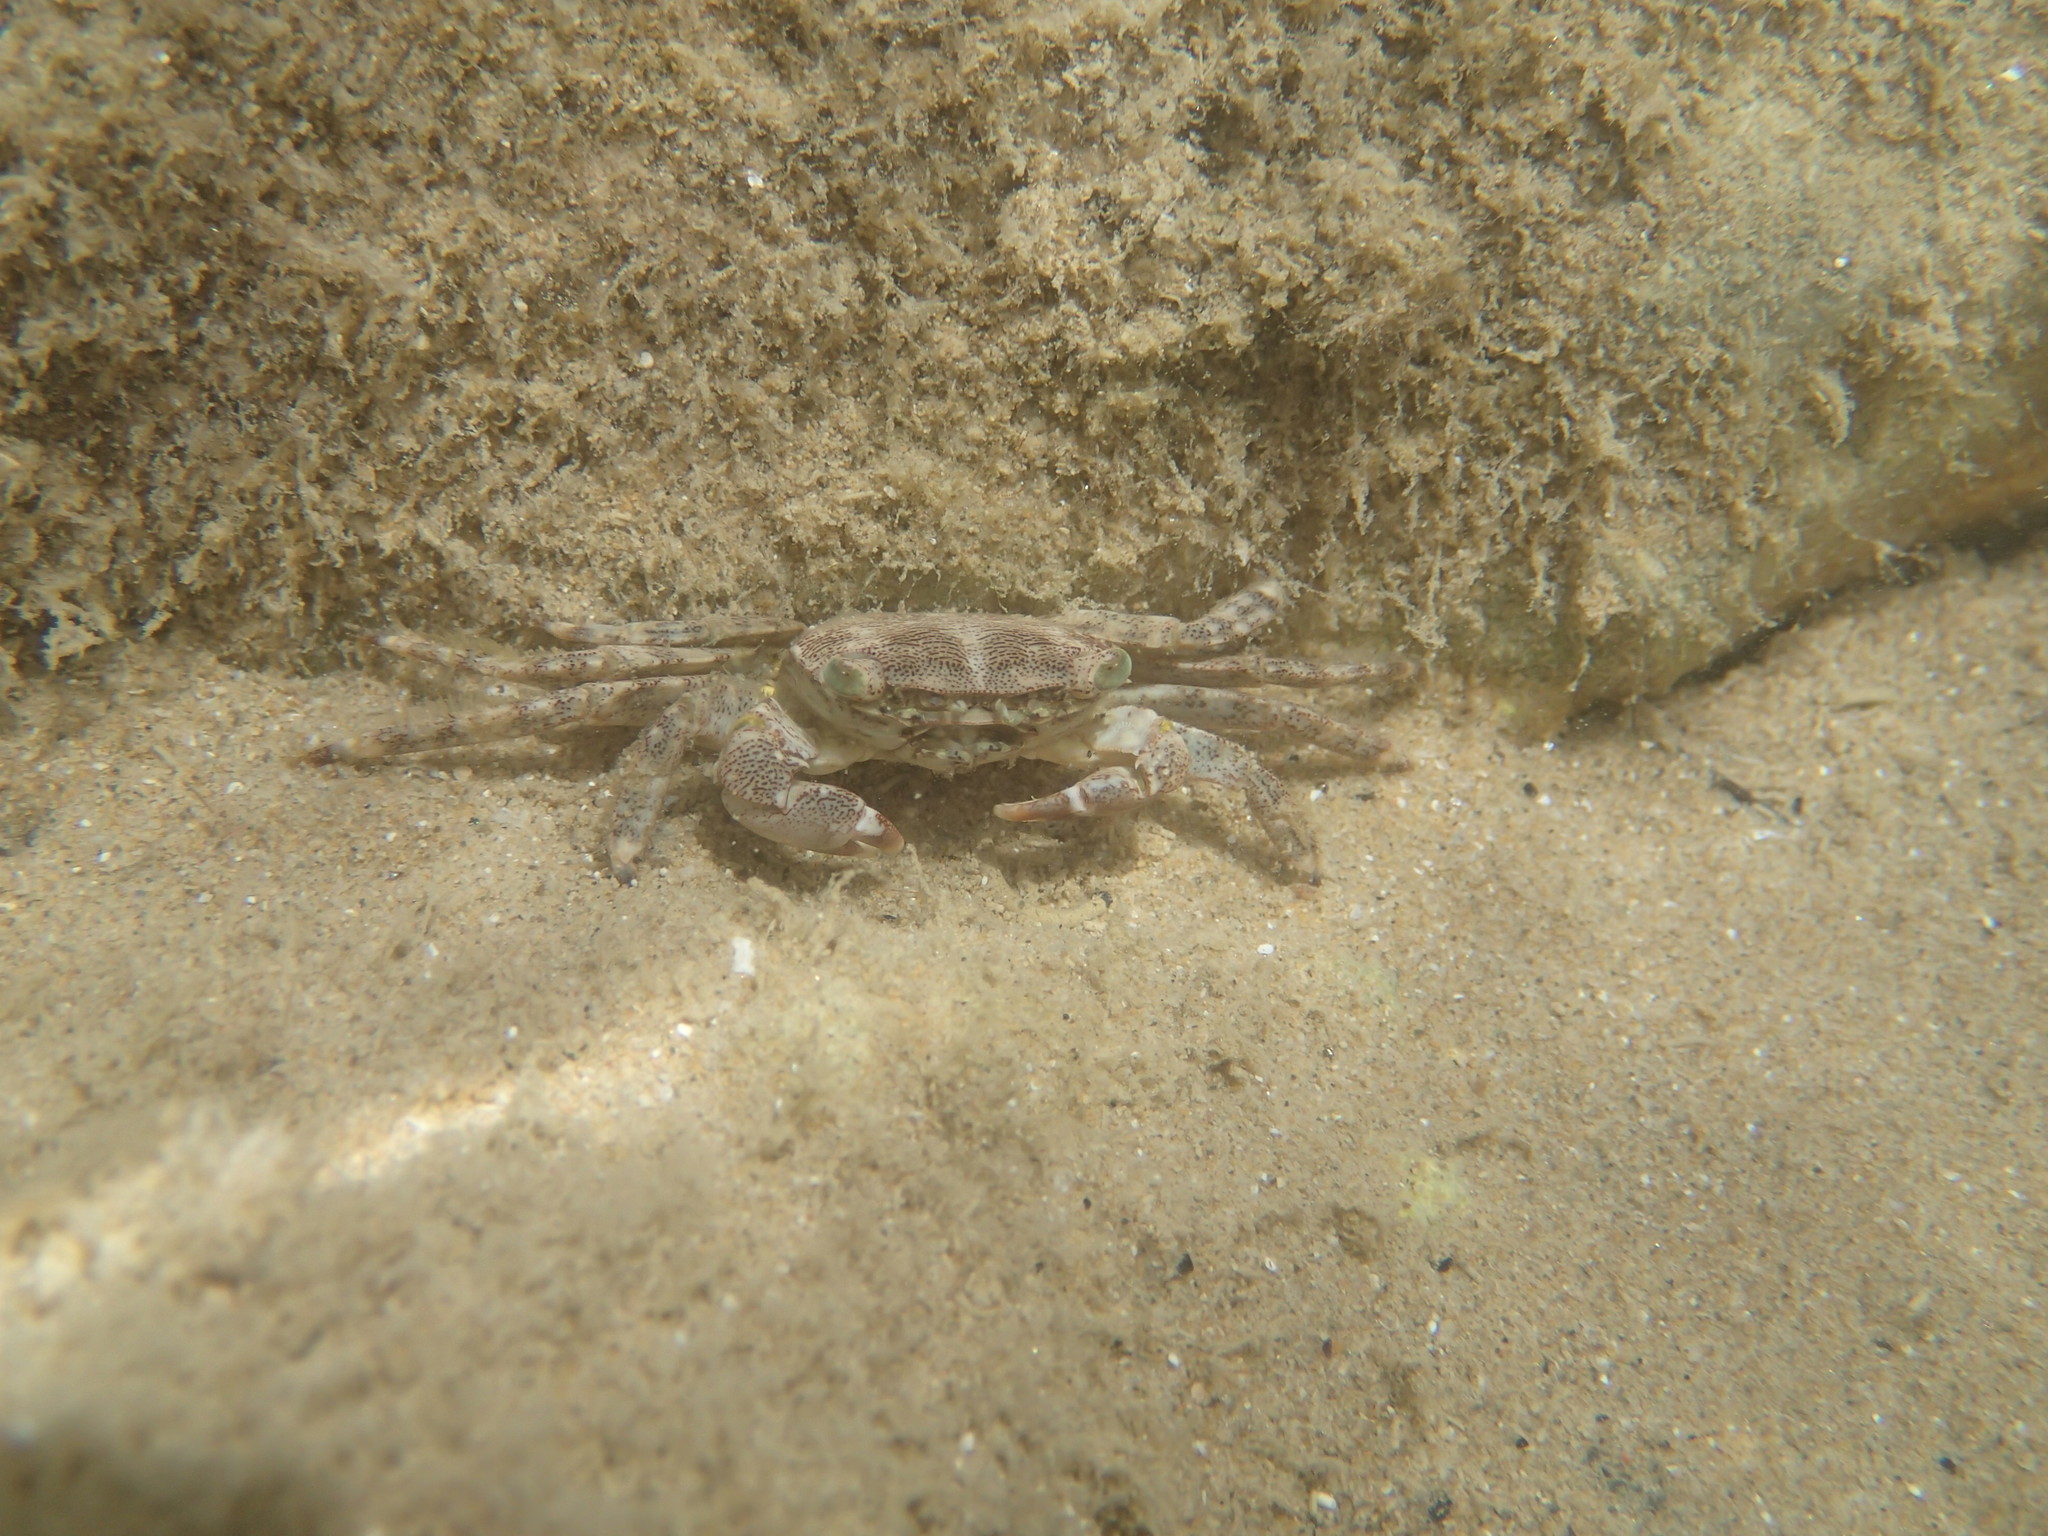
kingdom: Animalia
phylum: Arthropoda
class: Malacostraca
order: Decapoda
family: Grapsidae
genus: Pachygrapsus
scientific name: Pachygrapsus marmoratus
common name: Marbled rock crab
